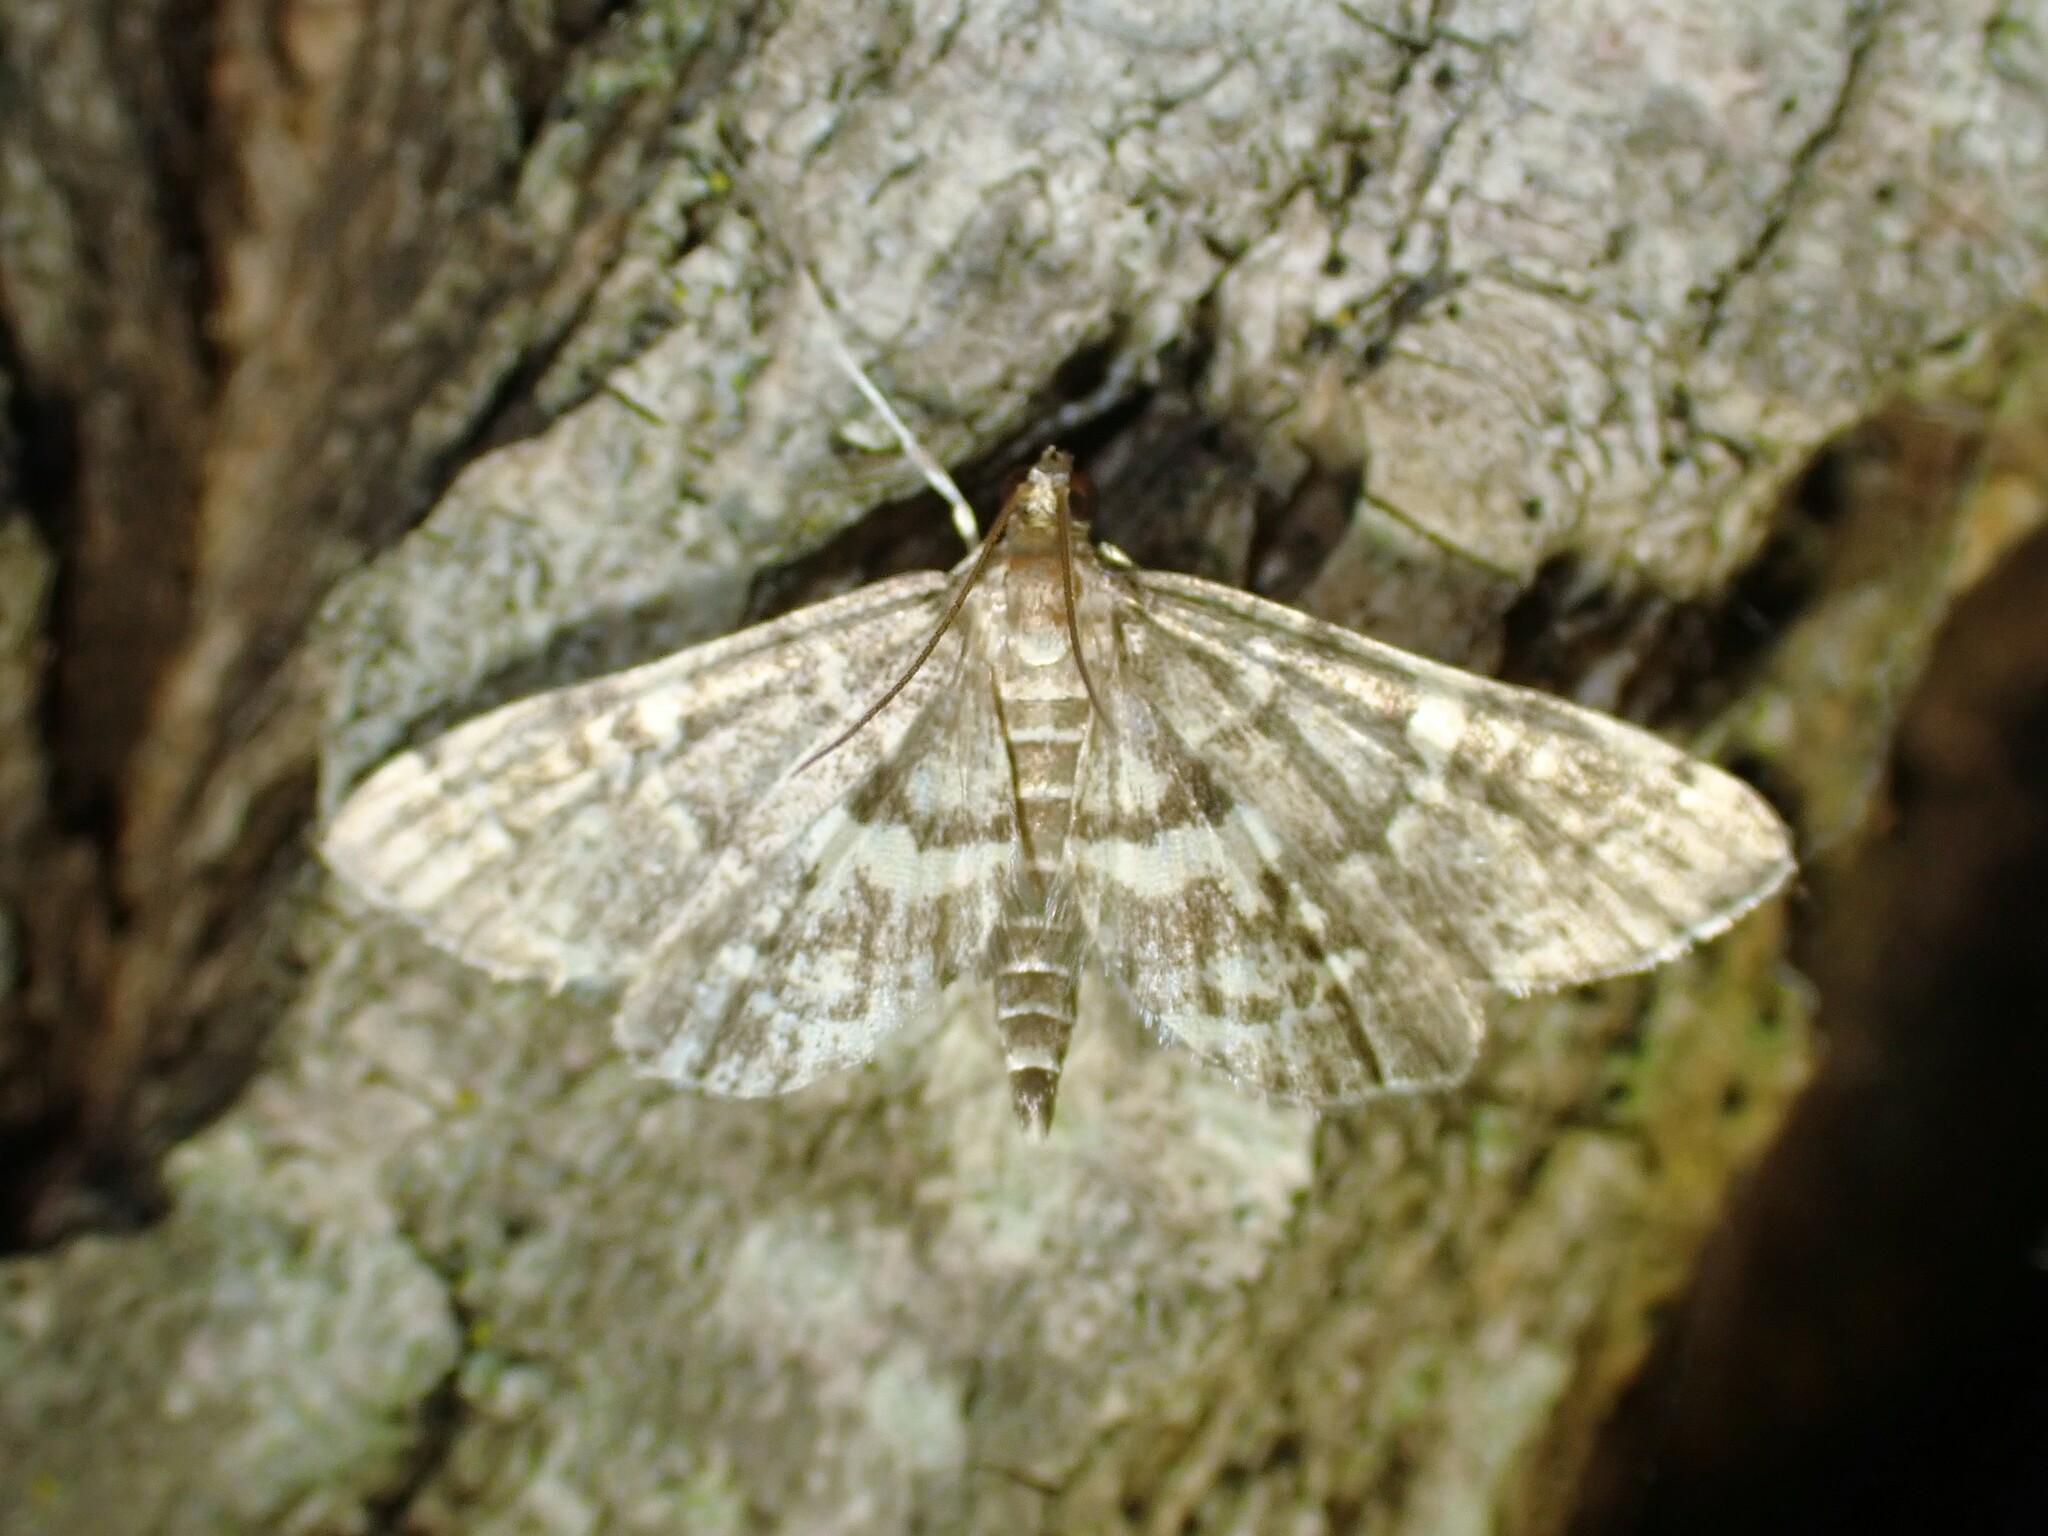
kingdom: Animalia
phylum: Arthropoda
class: Insecta
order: Lepidoptera
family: Crambidae
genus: Anageshna
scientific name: Anageshna primordialis
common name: Yellow-spotted webworm moth
